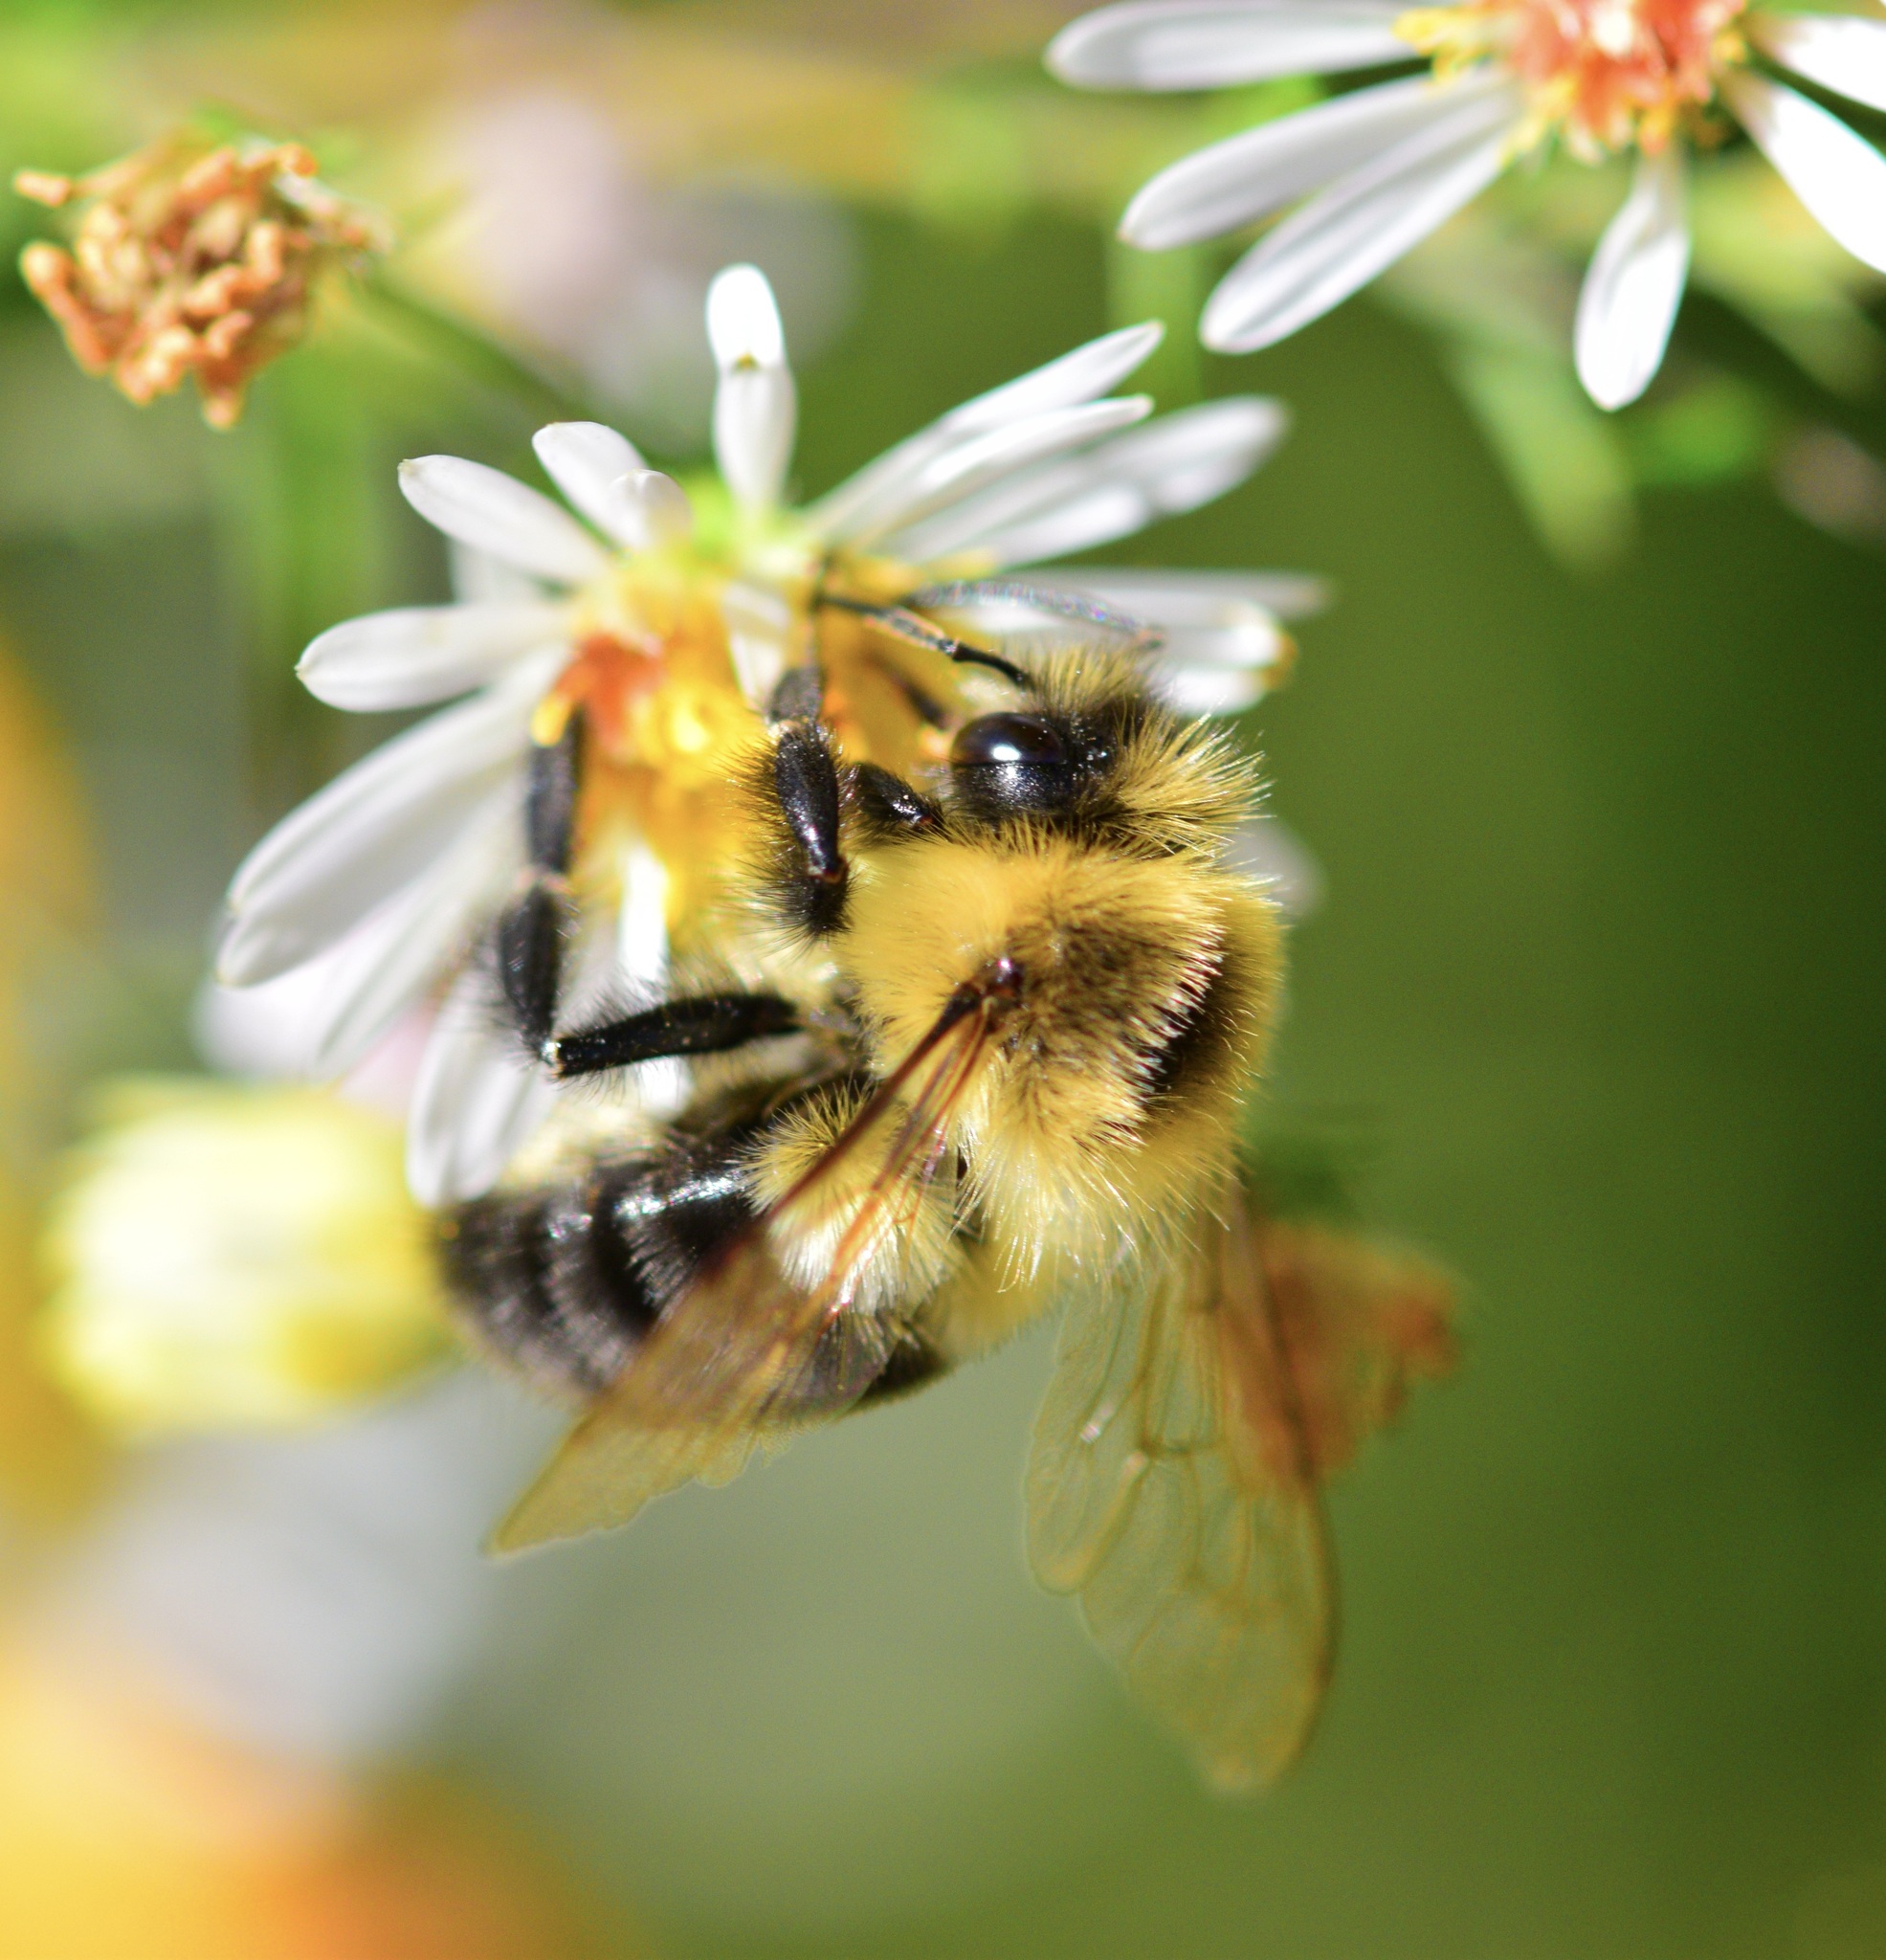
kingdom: Animalia
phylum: Arthropoda
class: Insecta
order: Hymenoptera
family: Apidae
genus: Bombus
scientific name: Bombus impatiens
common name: Common eastern bumble bee
